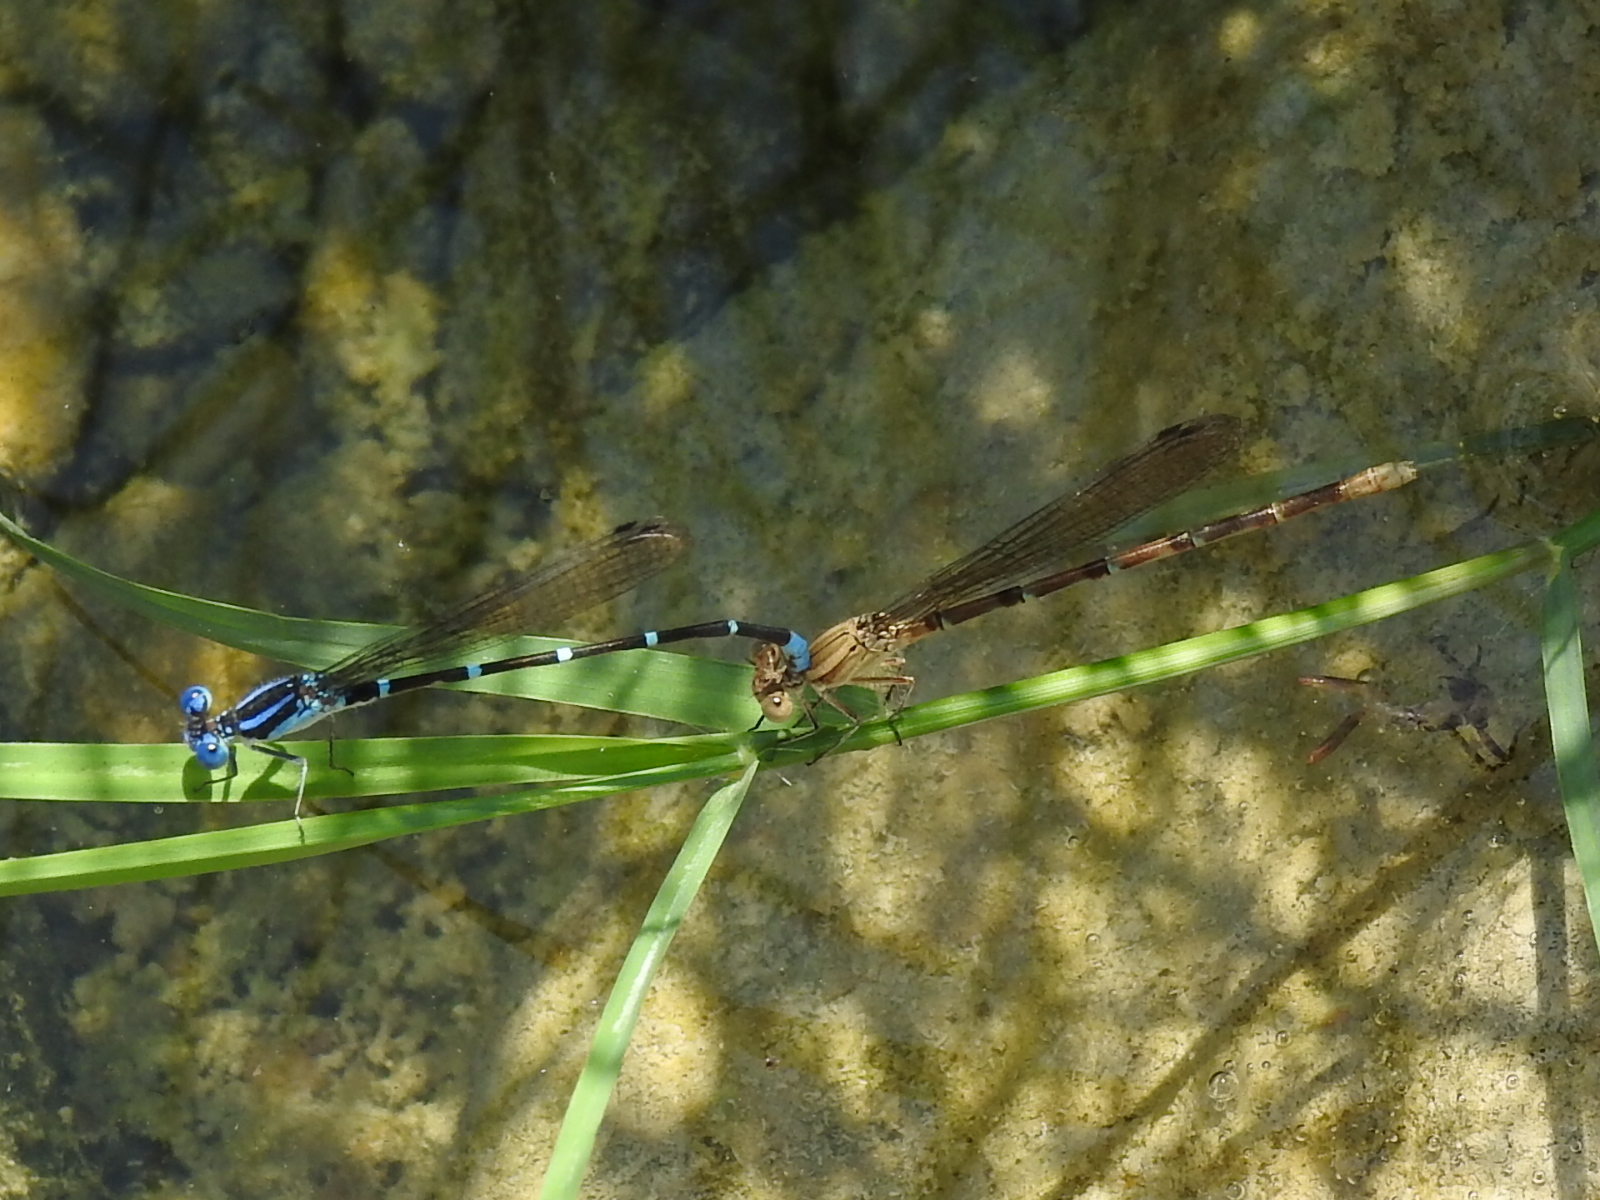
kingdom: Animalia
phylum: Arthropoda
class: Insecta
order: Odonata
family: Coenagrionidae
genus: Argia
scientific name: Argia sedula
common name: Blue-ringed dancer
